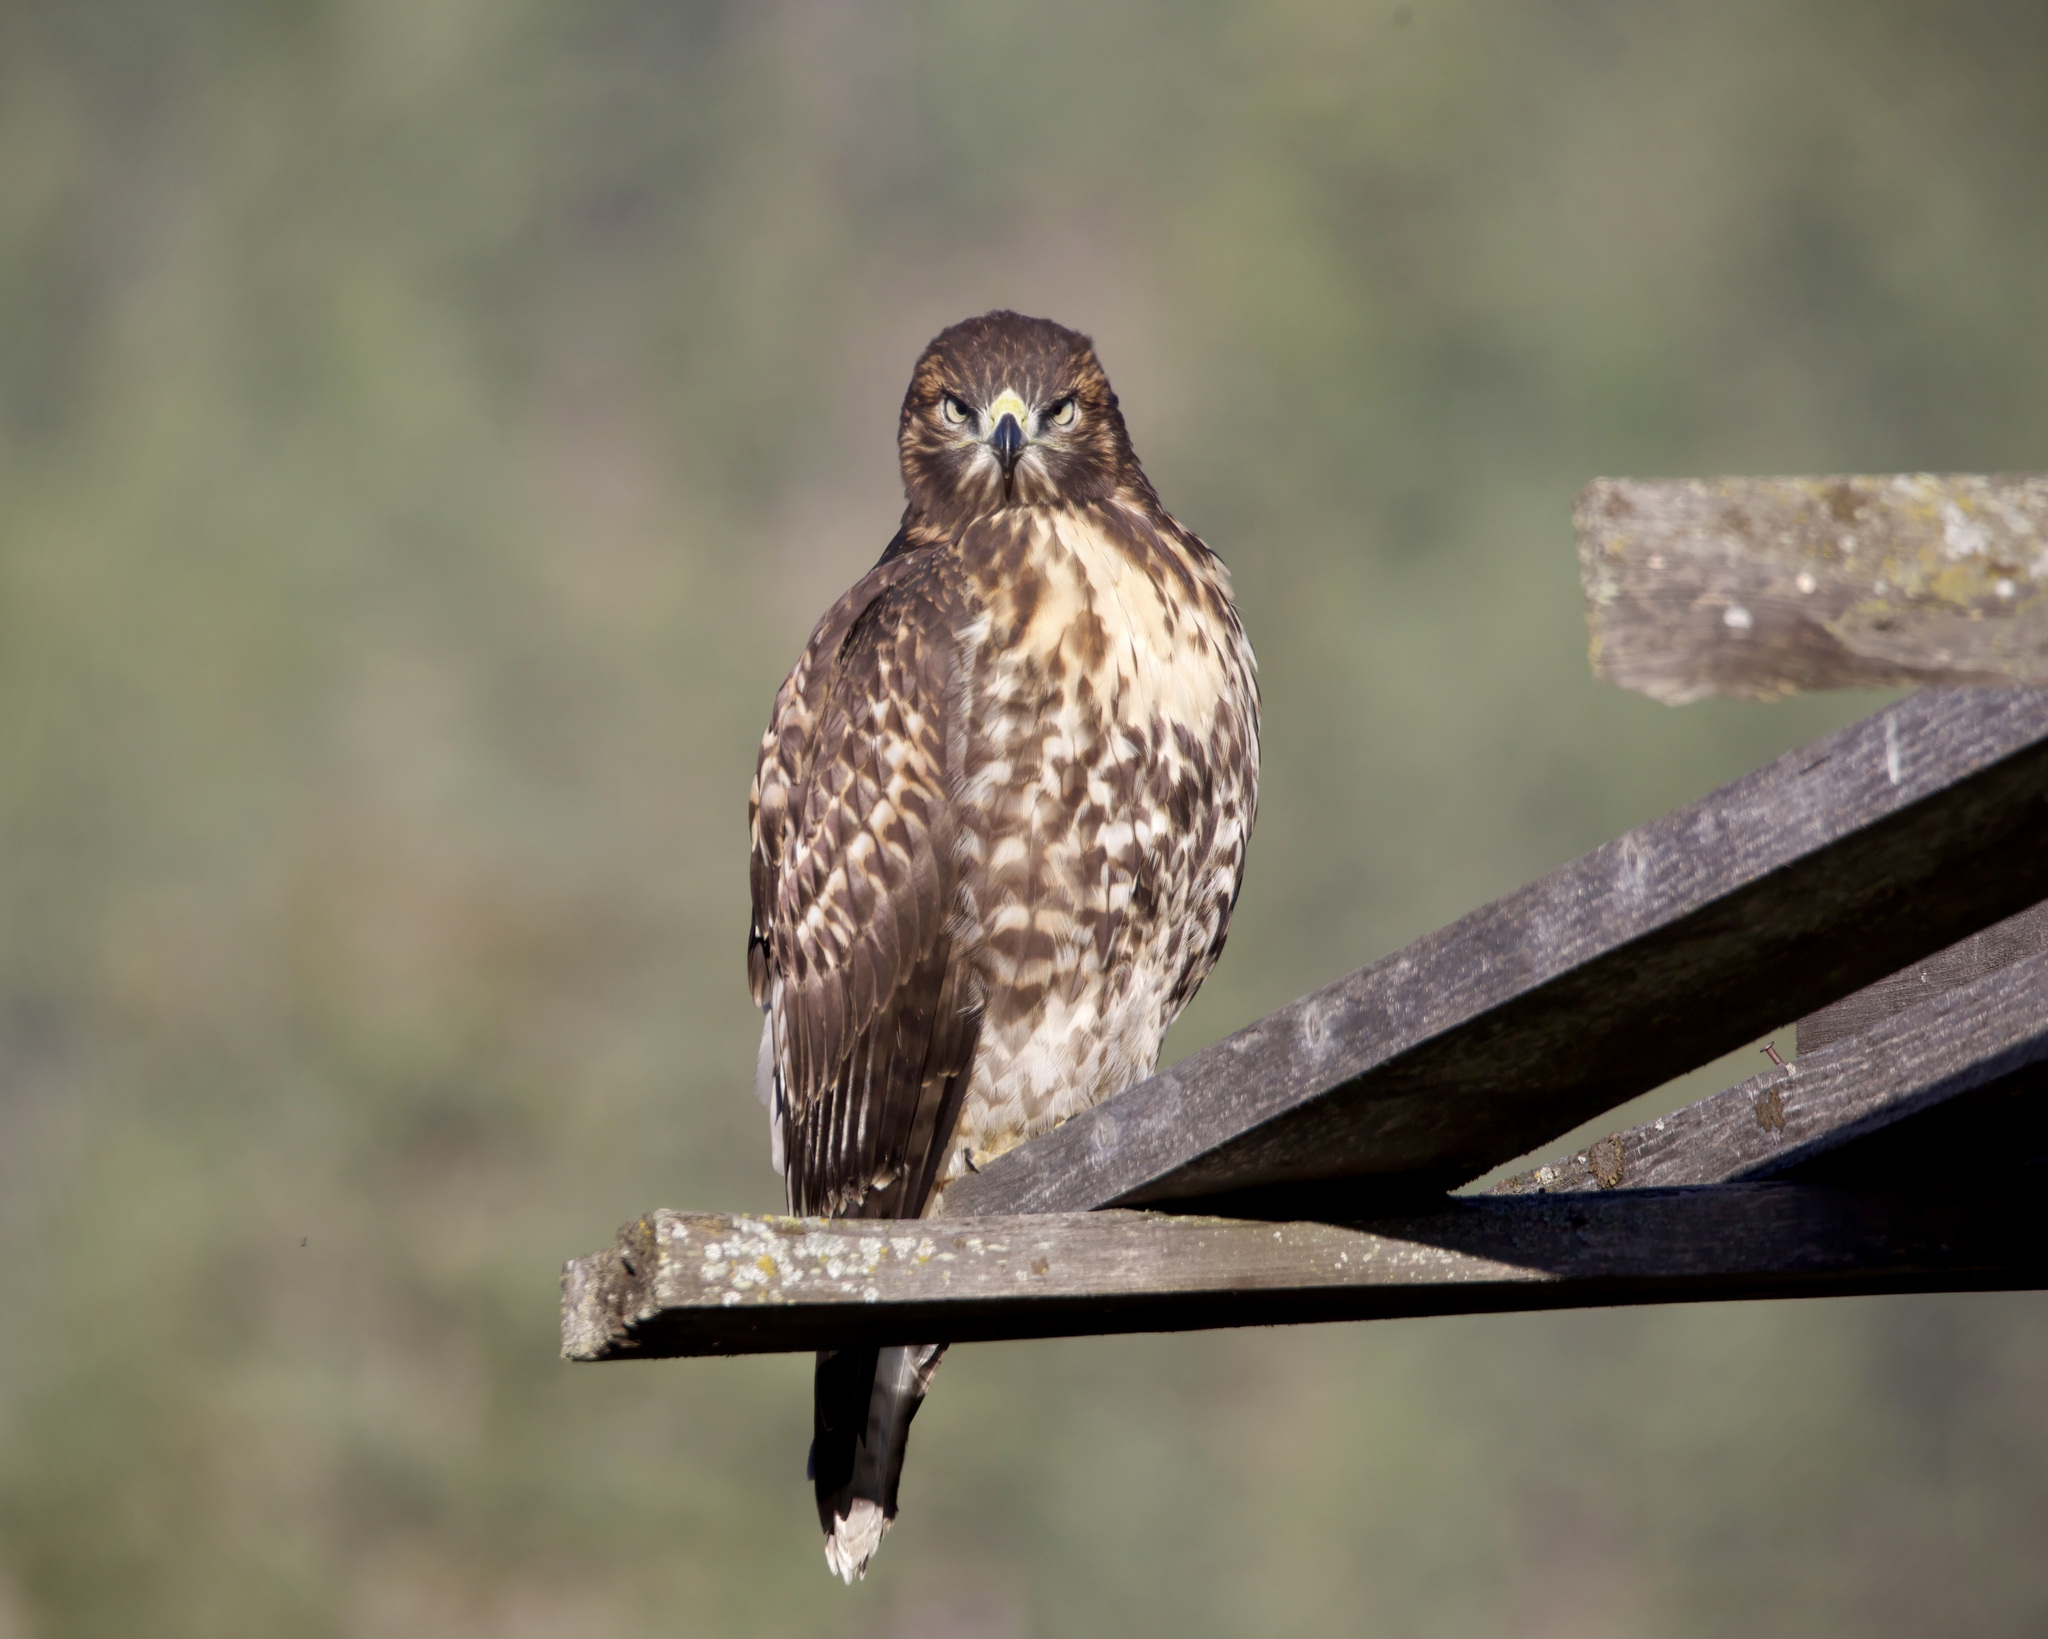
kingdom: Animalia
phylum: Chordata
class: Aves
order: Accipitriformes
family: Accipitridae
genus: Buteo
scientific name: Buteo jamaicensis
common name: Red-tailed hawk
